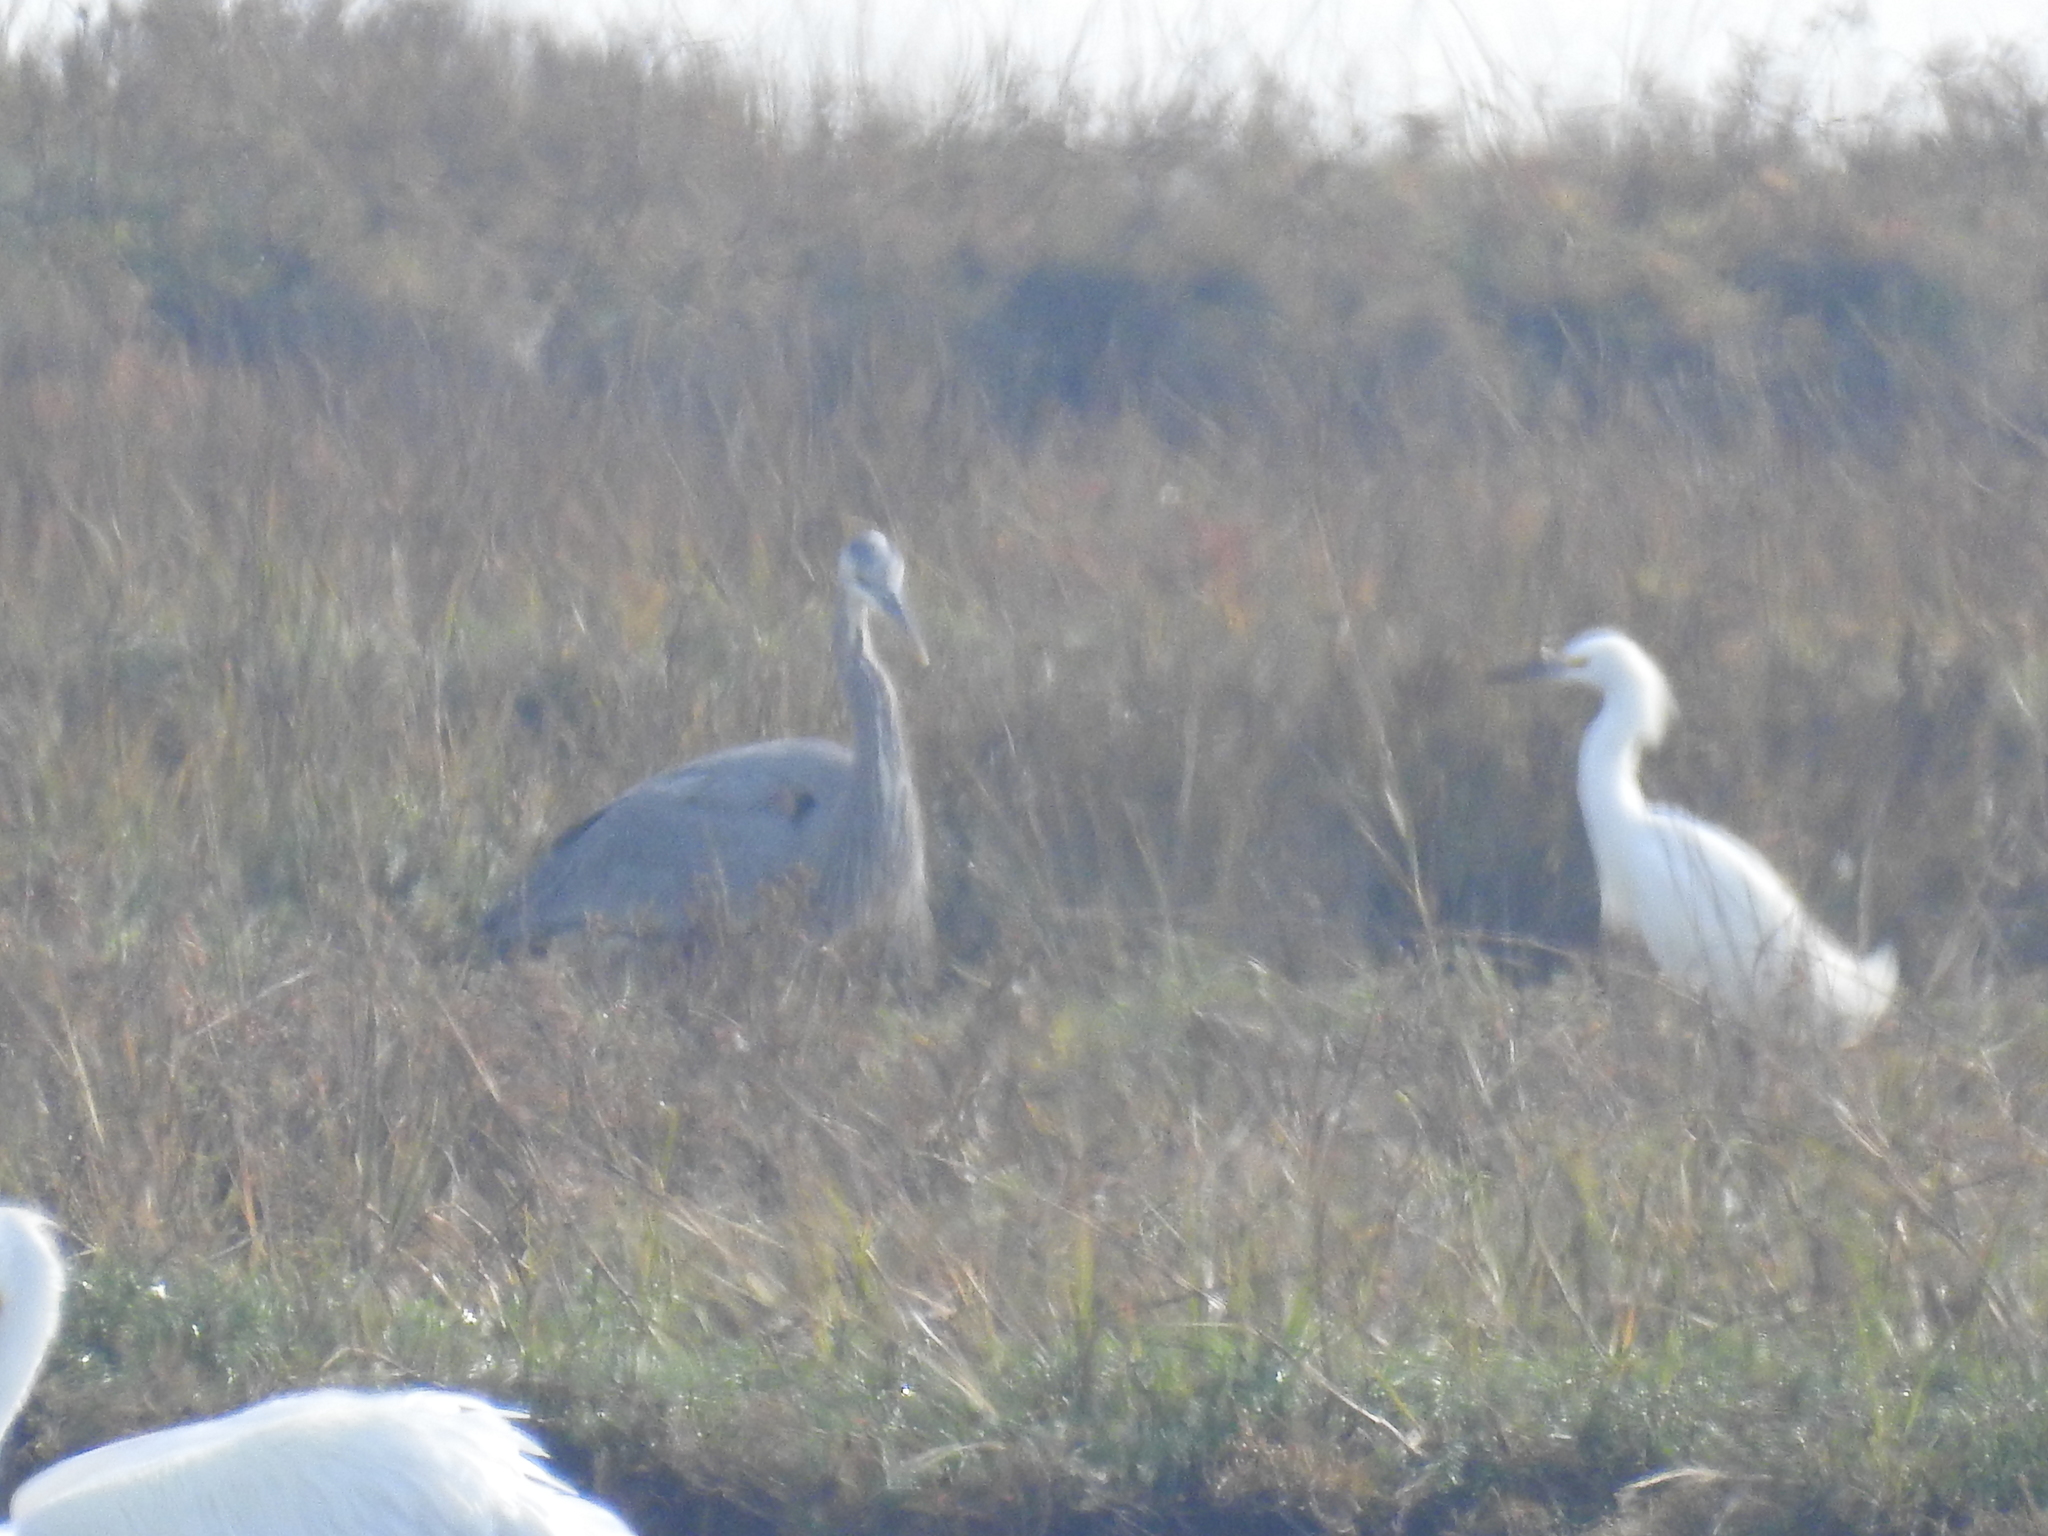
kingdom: Animalia
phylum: Chordata
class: Aves
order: Pelecaniformes
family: Ardeidae
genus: Ardea
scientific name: Ardea herodias
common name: Great blue heron
